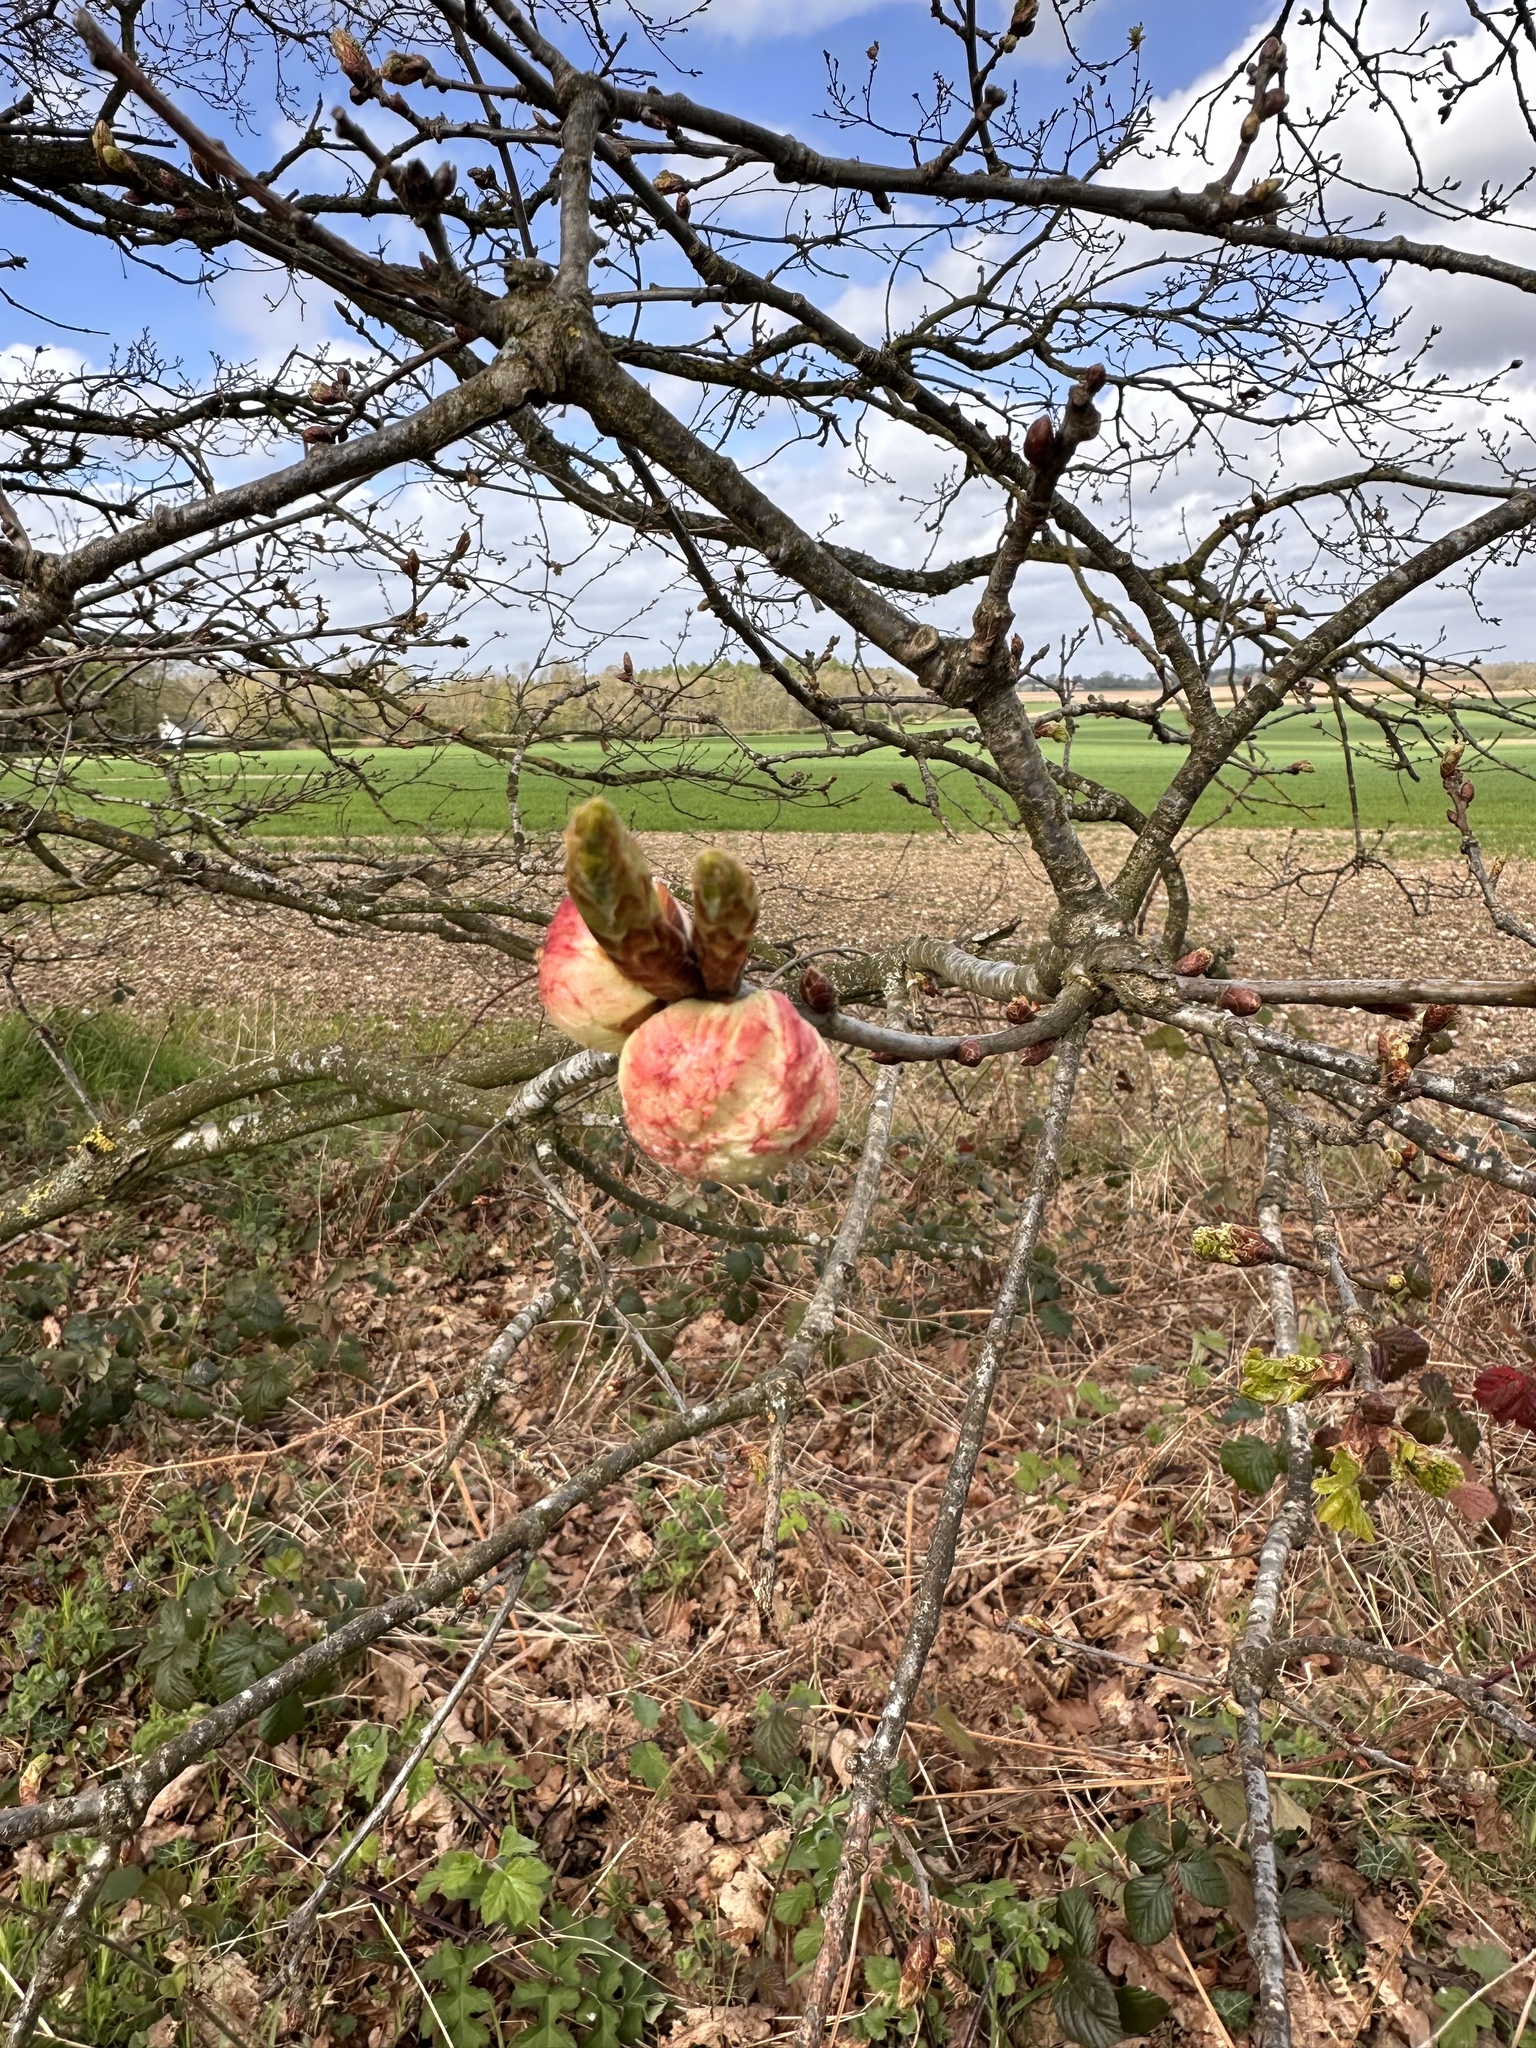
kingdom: Animalia
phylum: Arthropoda
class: Insecta
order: Hymenoptera
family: Cynipidae
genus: Biorhiza
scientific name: Biorhiza pallida
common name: Oak apple
